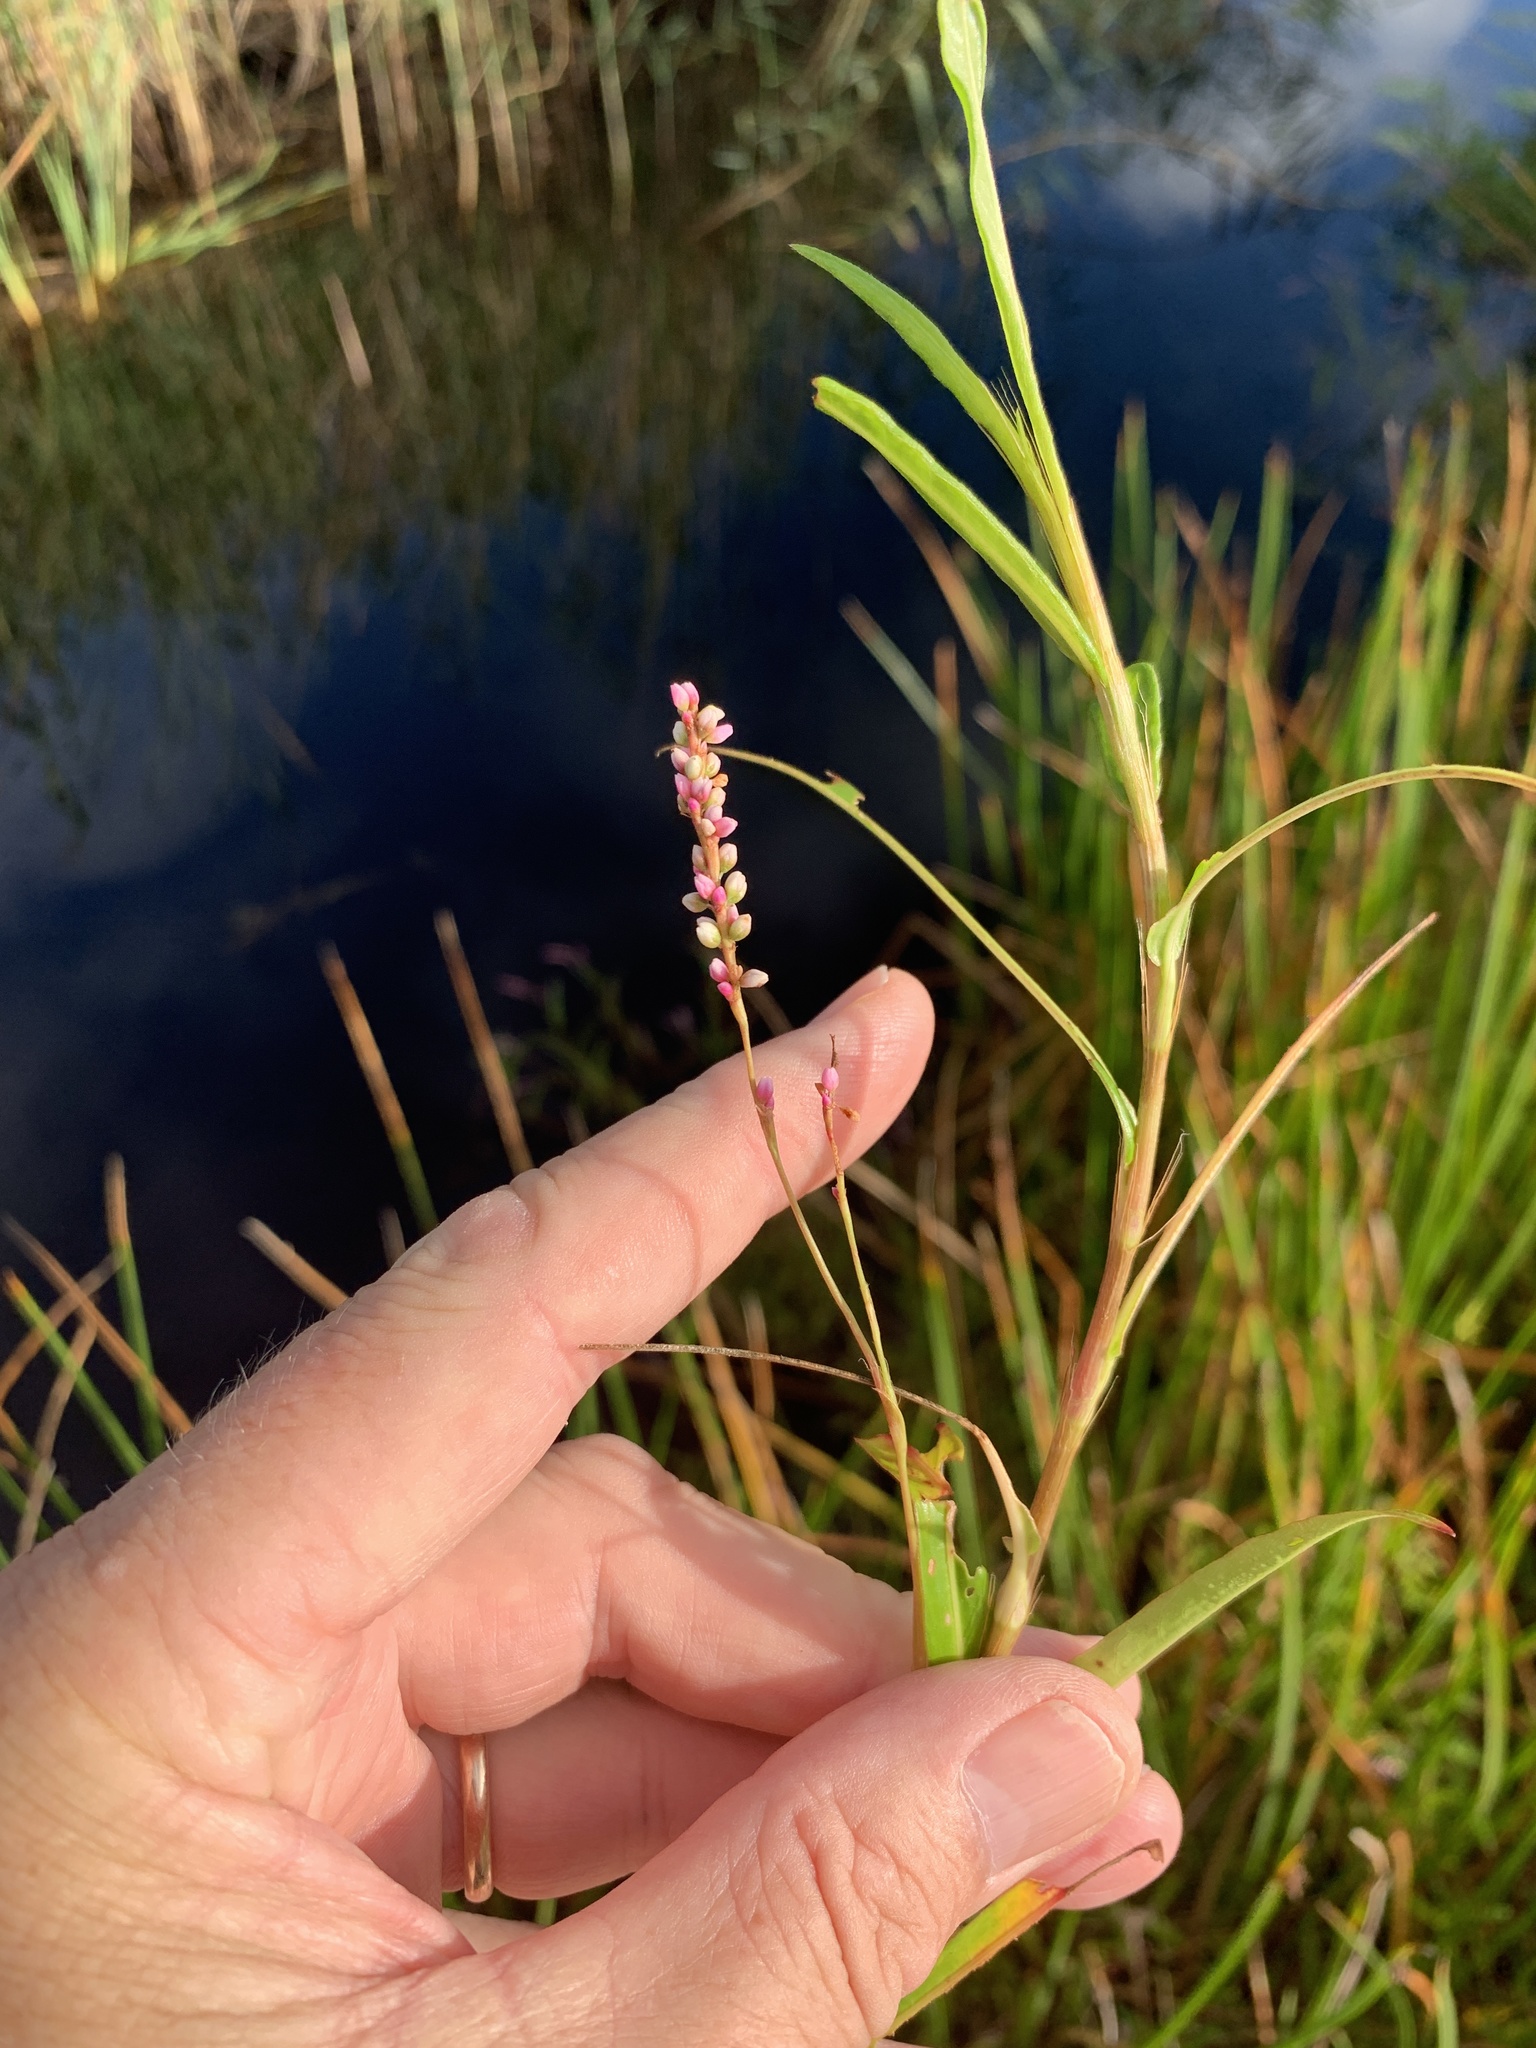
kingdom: Plantae
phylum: Tracheophyta
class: Magnoliopsida
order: Caryophyllales
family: Polygonaceae
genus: Persicaria
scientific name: Persicaria decipiens
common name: Willow-weed
